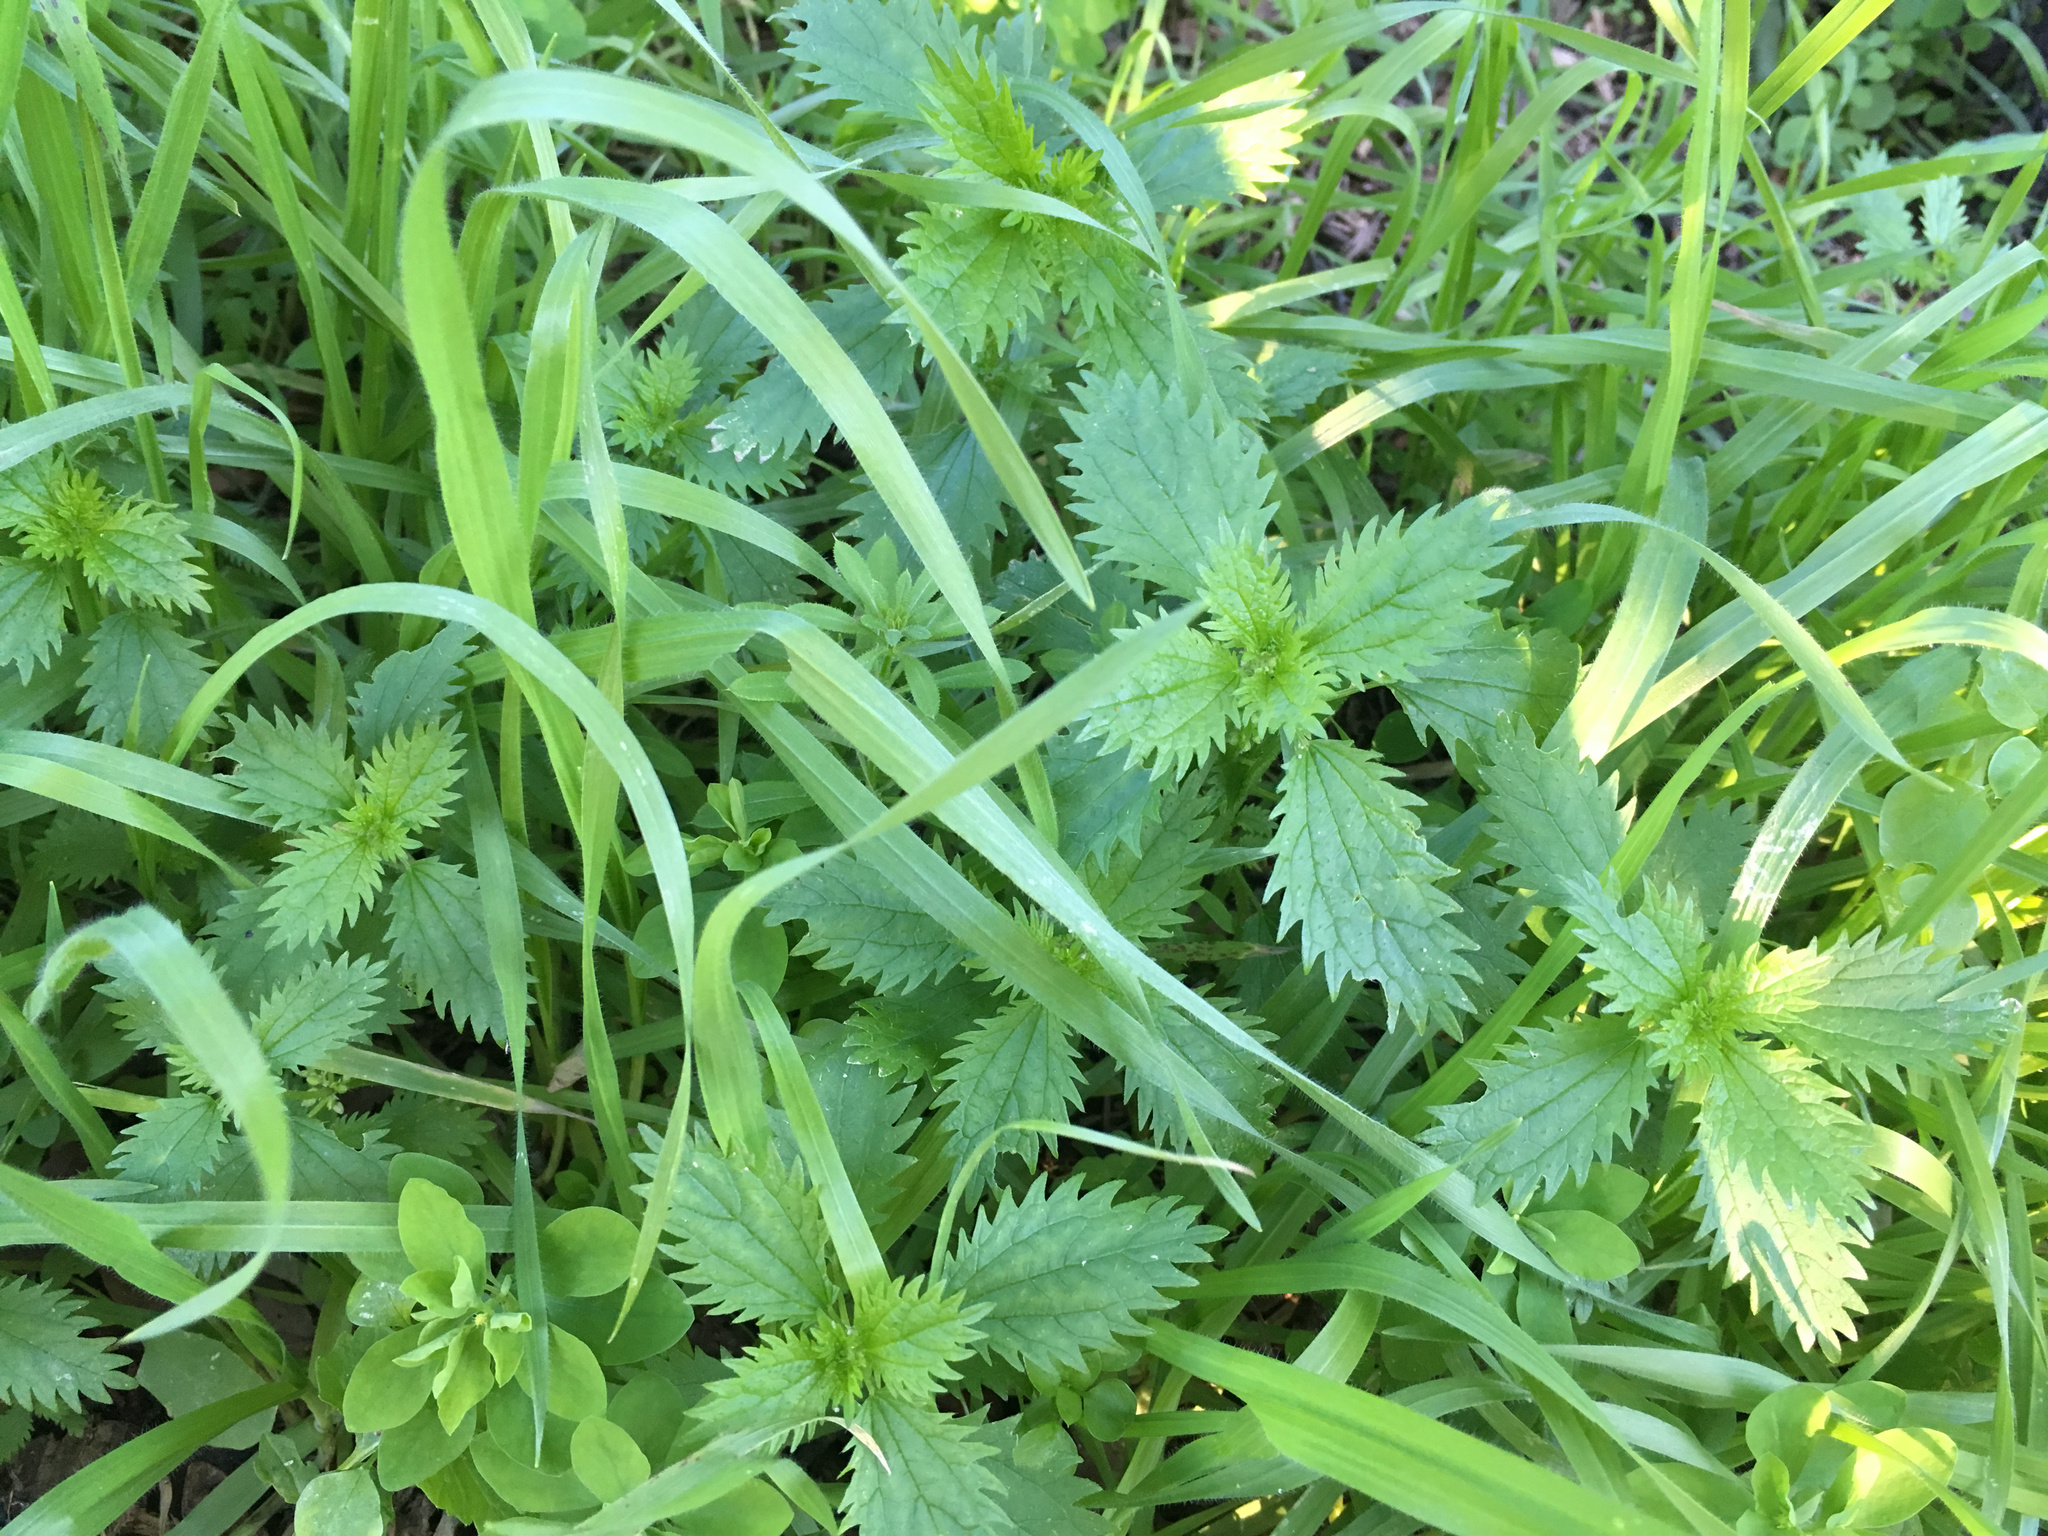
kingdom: Plantae
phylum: Tracheophyta
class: Magnoliopsida
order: Rosales
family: Urticaceae
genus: Urtica
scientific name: Urtica urens
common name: Dwarf nettle
